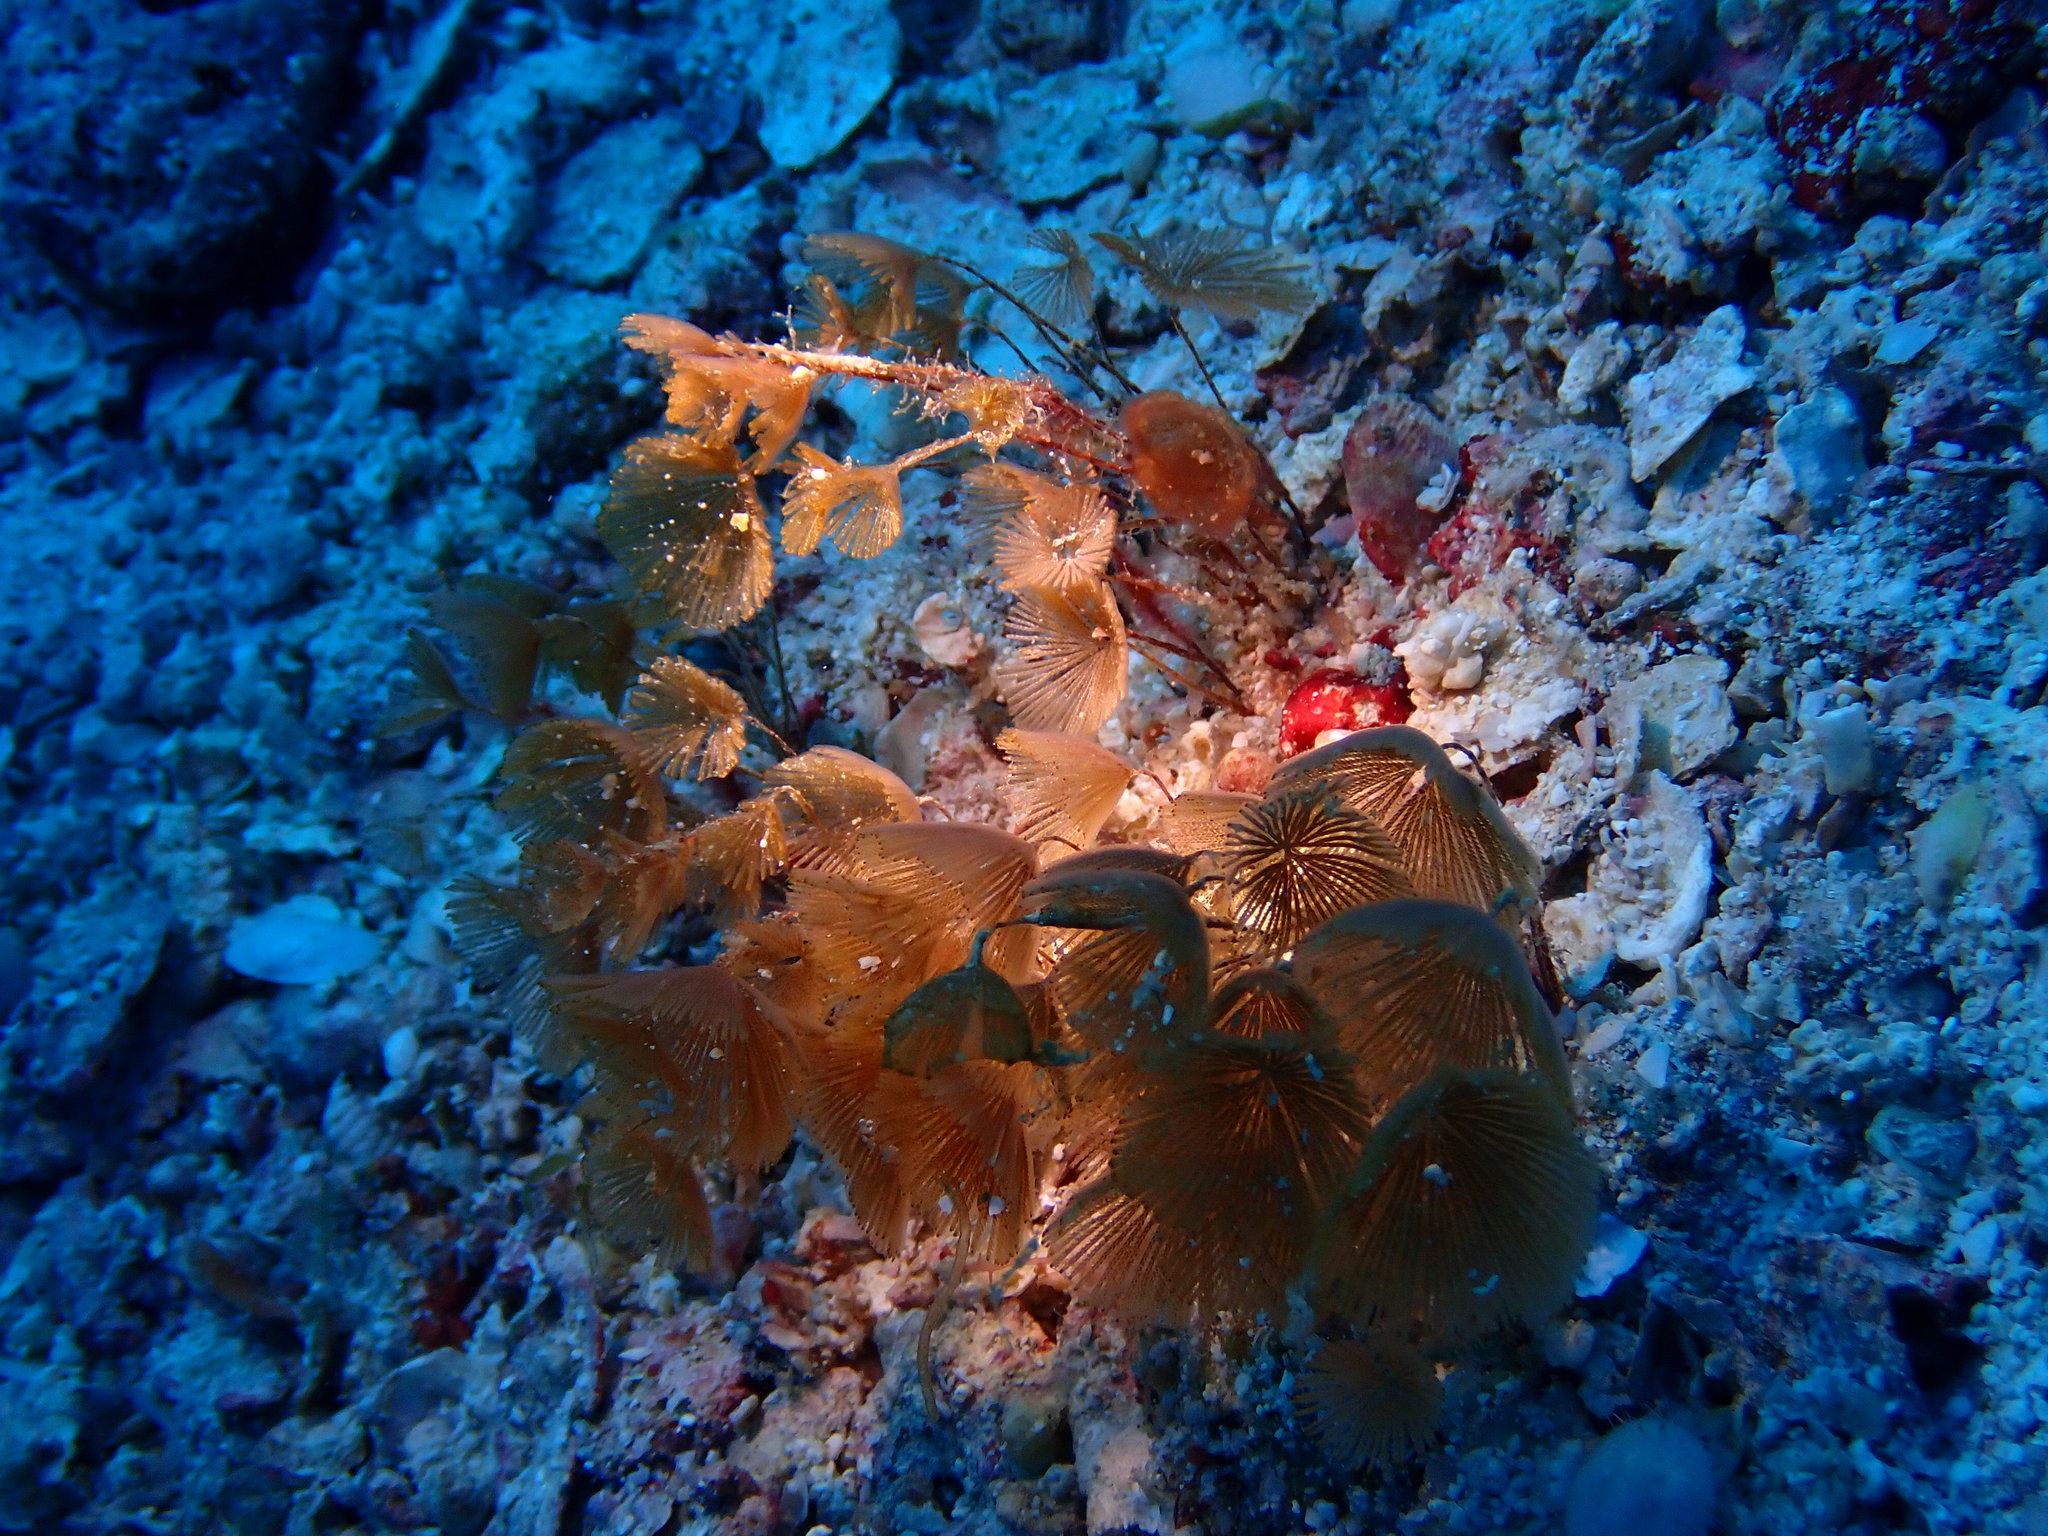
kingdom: Animalia
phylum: Bryozoa
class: Gymnolaemata
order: Cheilostomatida
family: Bugulidae
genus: Caulibugula
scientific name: Caulibugula mortenseni
